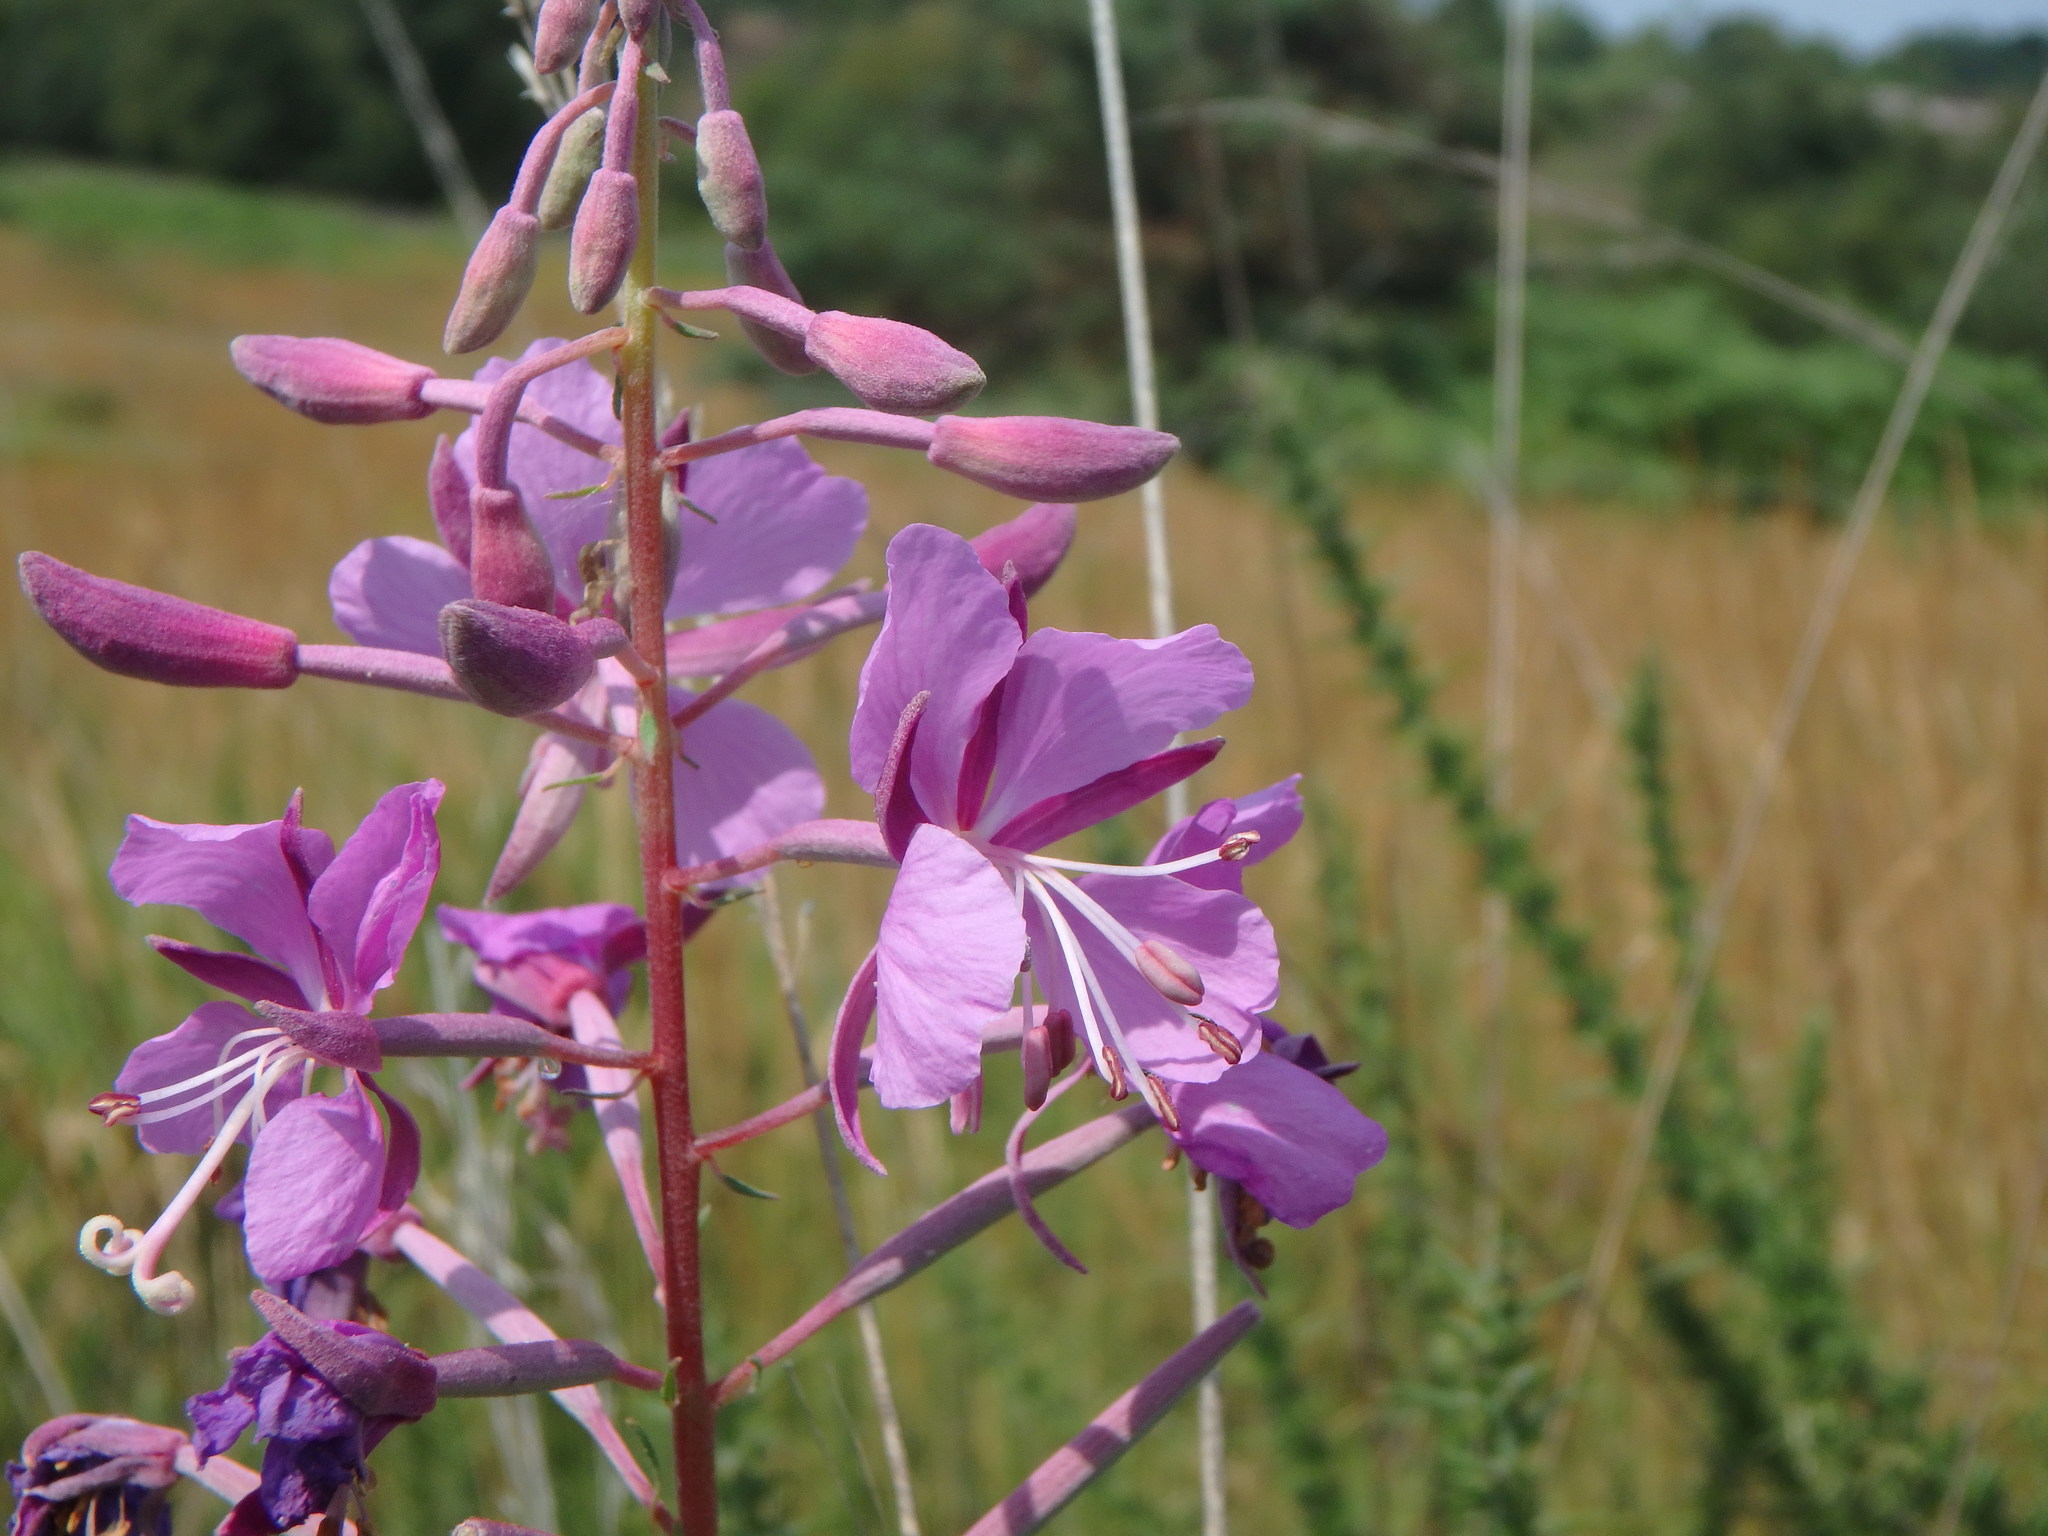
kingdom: Plantae
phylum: Tracheophyta
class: Magnoliopsida
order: Myrtales
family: Onagraceae
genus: Chamaenerion
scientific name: Chamaenerion angustifolium
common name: Fireweed
